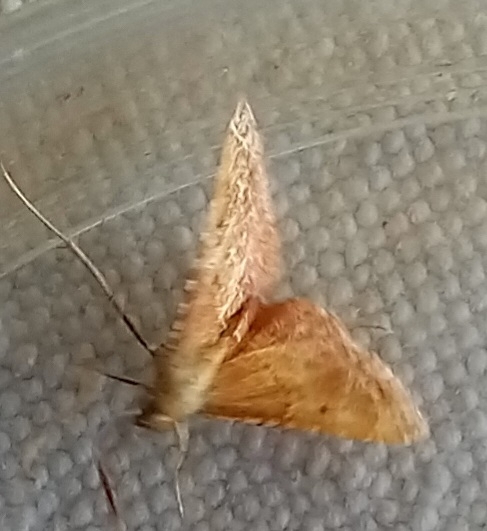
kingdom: Animalia
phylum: Arthropoda
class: Insecta
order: Lepidoptera
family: Pyralidae
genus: Endotricha
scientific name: Endotricha flammealis
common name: Rosy tabby
